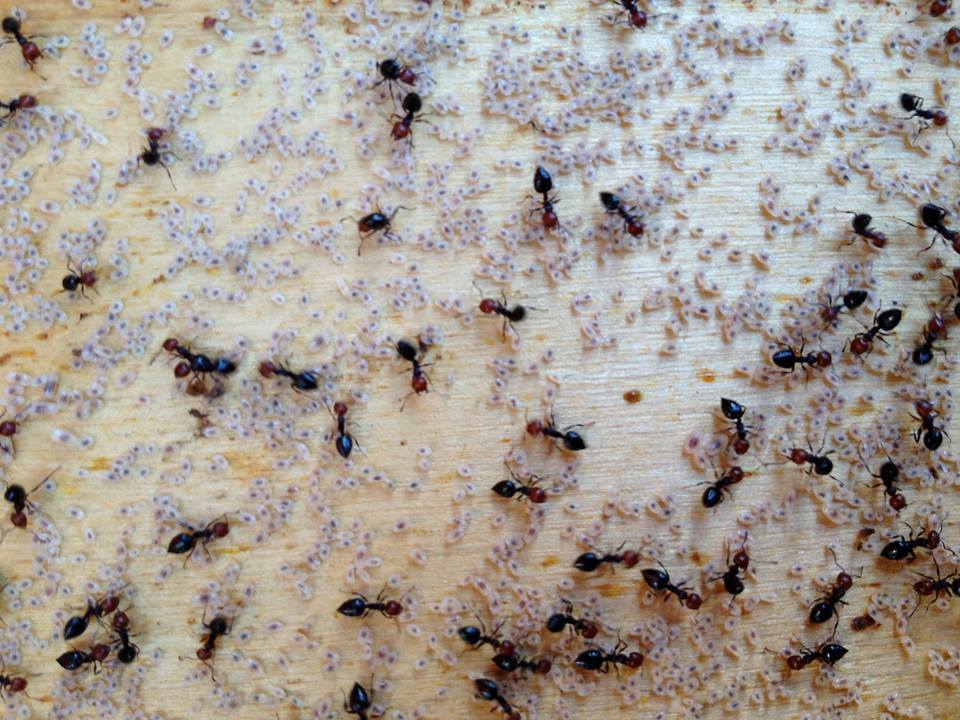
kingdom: Animalia
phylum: Arthropoda
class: Insecta
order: Hymenoptera
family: Formicidae
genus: Crematogaster
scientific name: Crematogaster scutellaris
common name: Fourmi du liège
